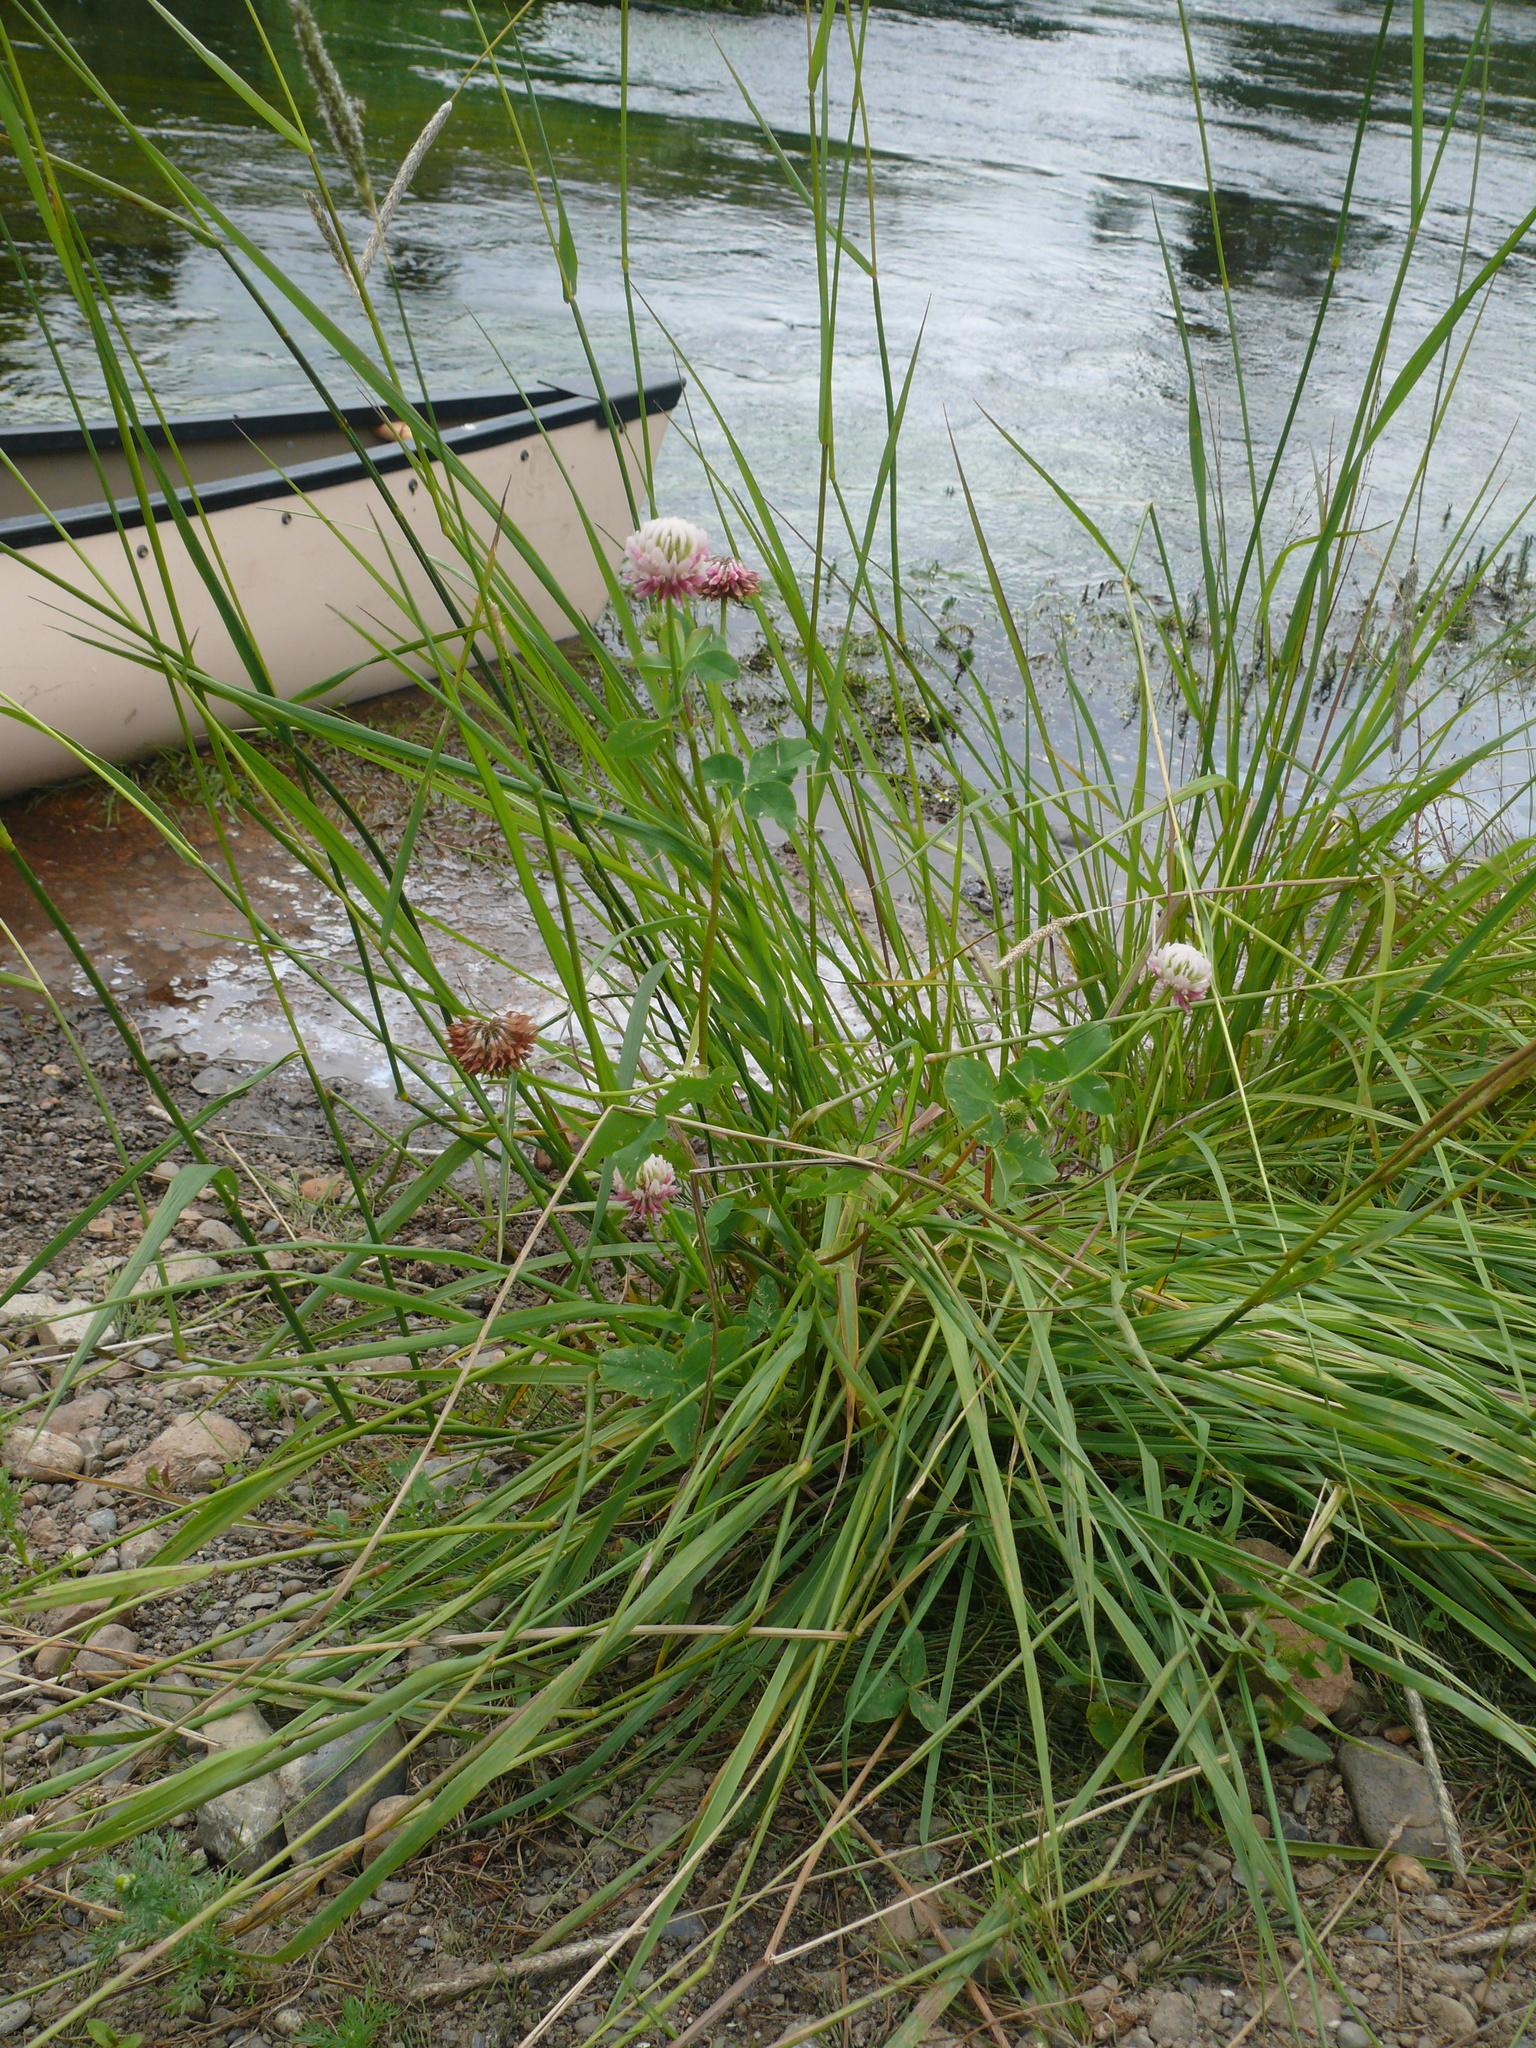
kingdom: Plantae
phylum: Tracheophyta
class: Magnoliopsida
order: Fabales
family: Fabaceae
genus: Trifolium
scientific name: Trifolium hybridum
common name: Alsike clover
